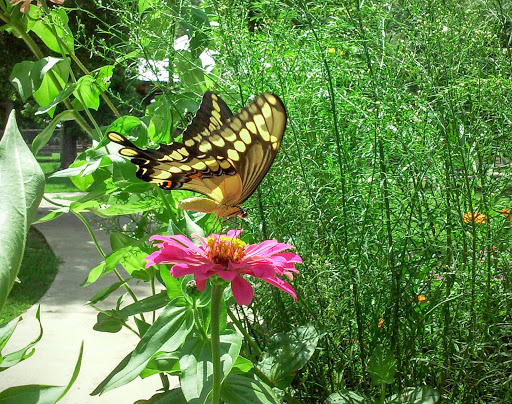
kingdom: Animalia
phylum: Arthropoda
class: Insecta
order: Lepidoptera
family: Papilionidae
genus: Papilio
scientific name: Papilio cresphontes
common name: Giant swallowtail
